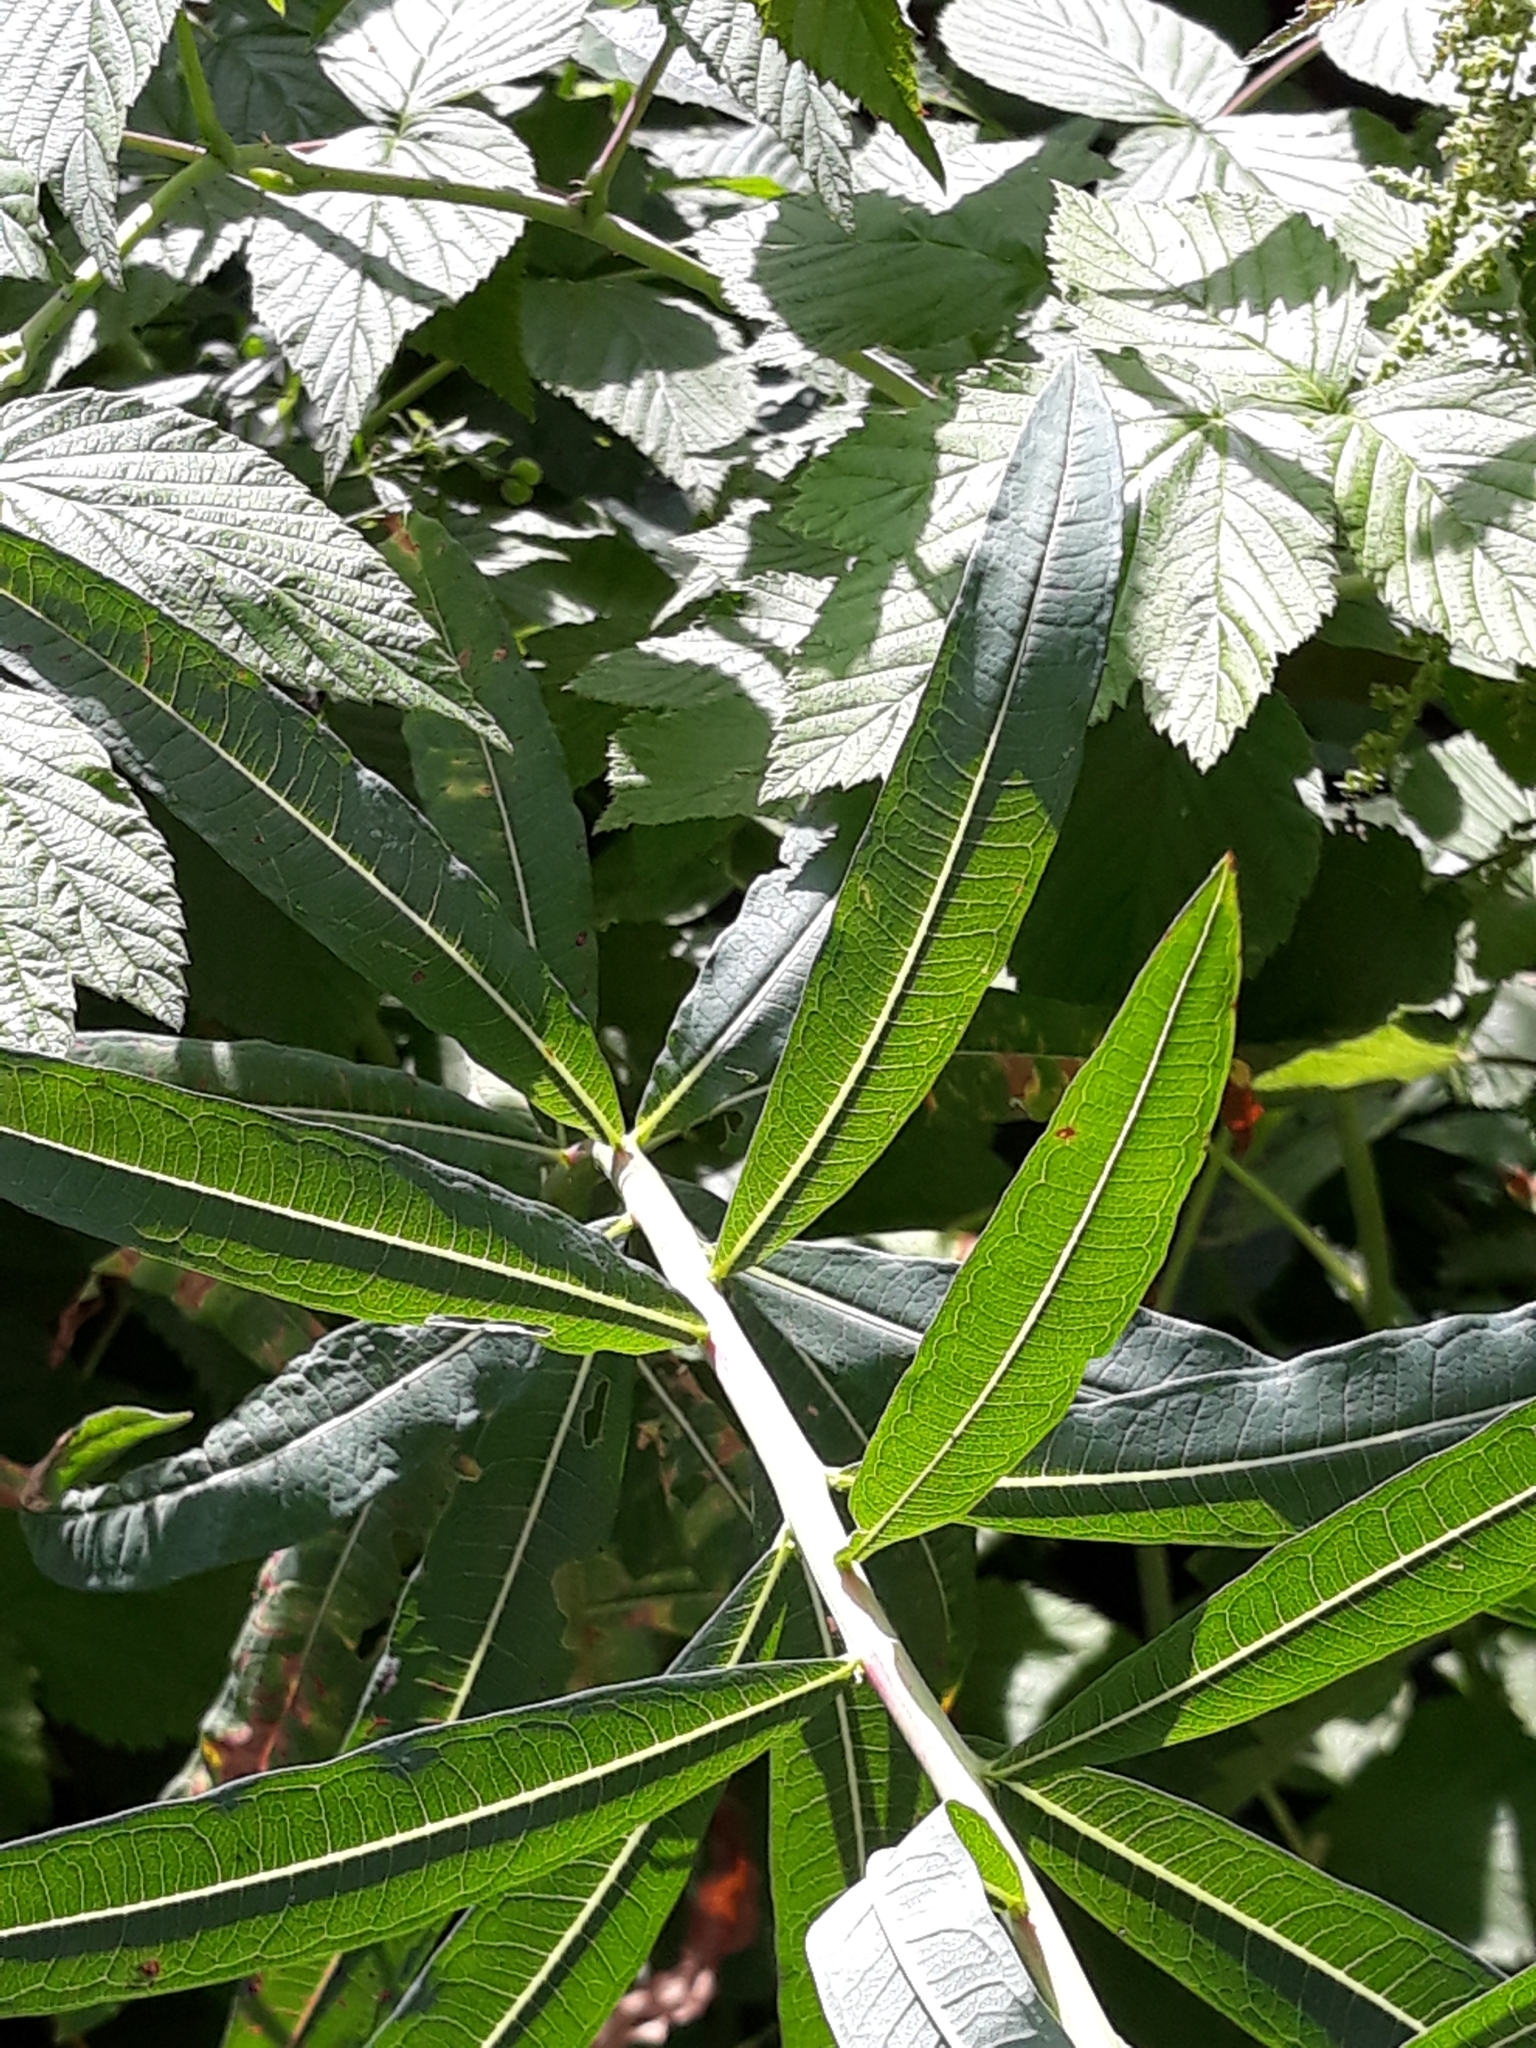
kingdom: Plantae
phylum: Tracheophyta
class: Magnoliopsida
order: Myrtales
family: Onagraceae
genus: Chamaenerion
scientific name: Chamaenerion angustifolium
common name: Fireweed
